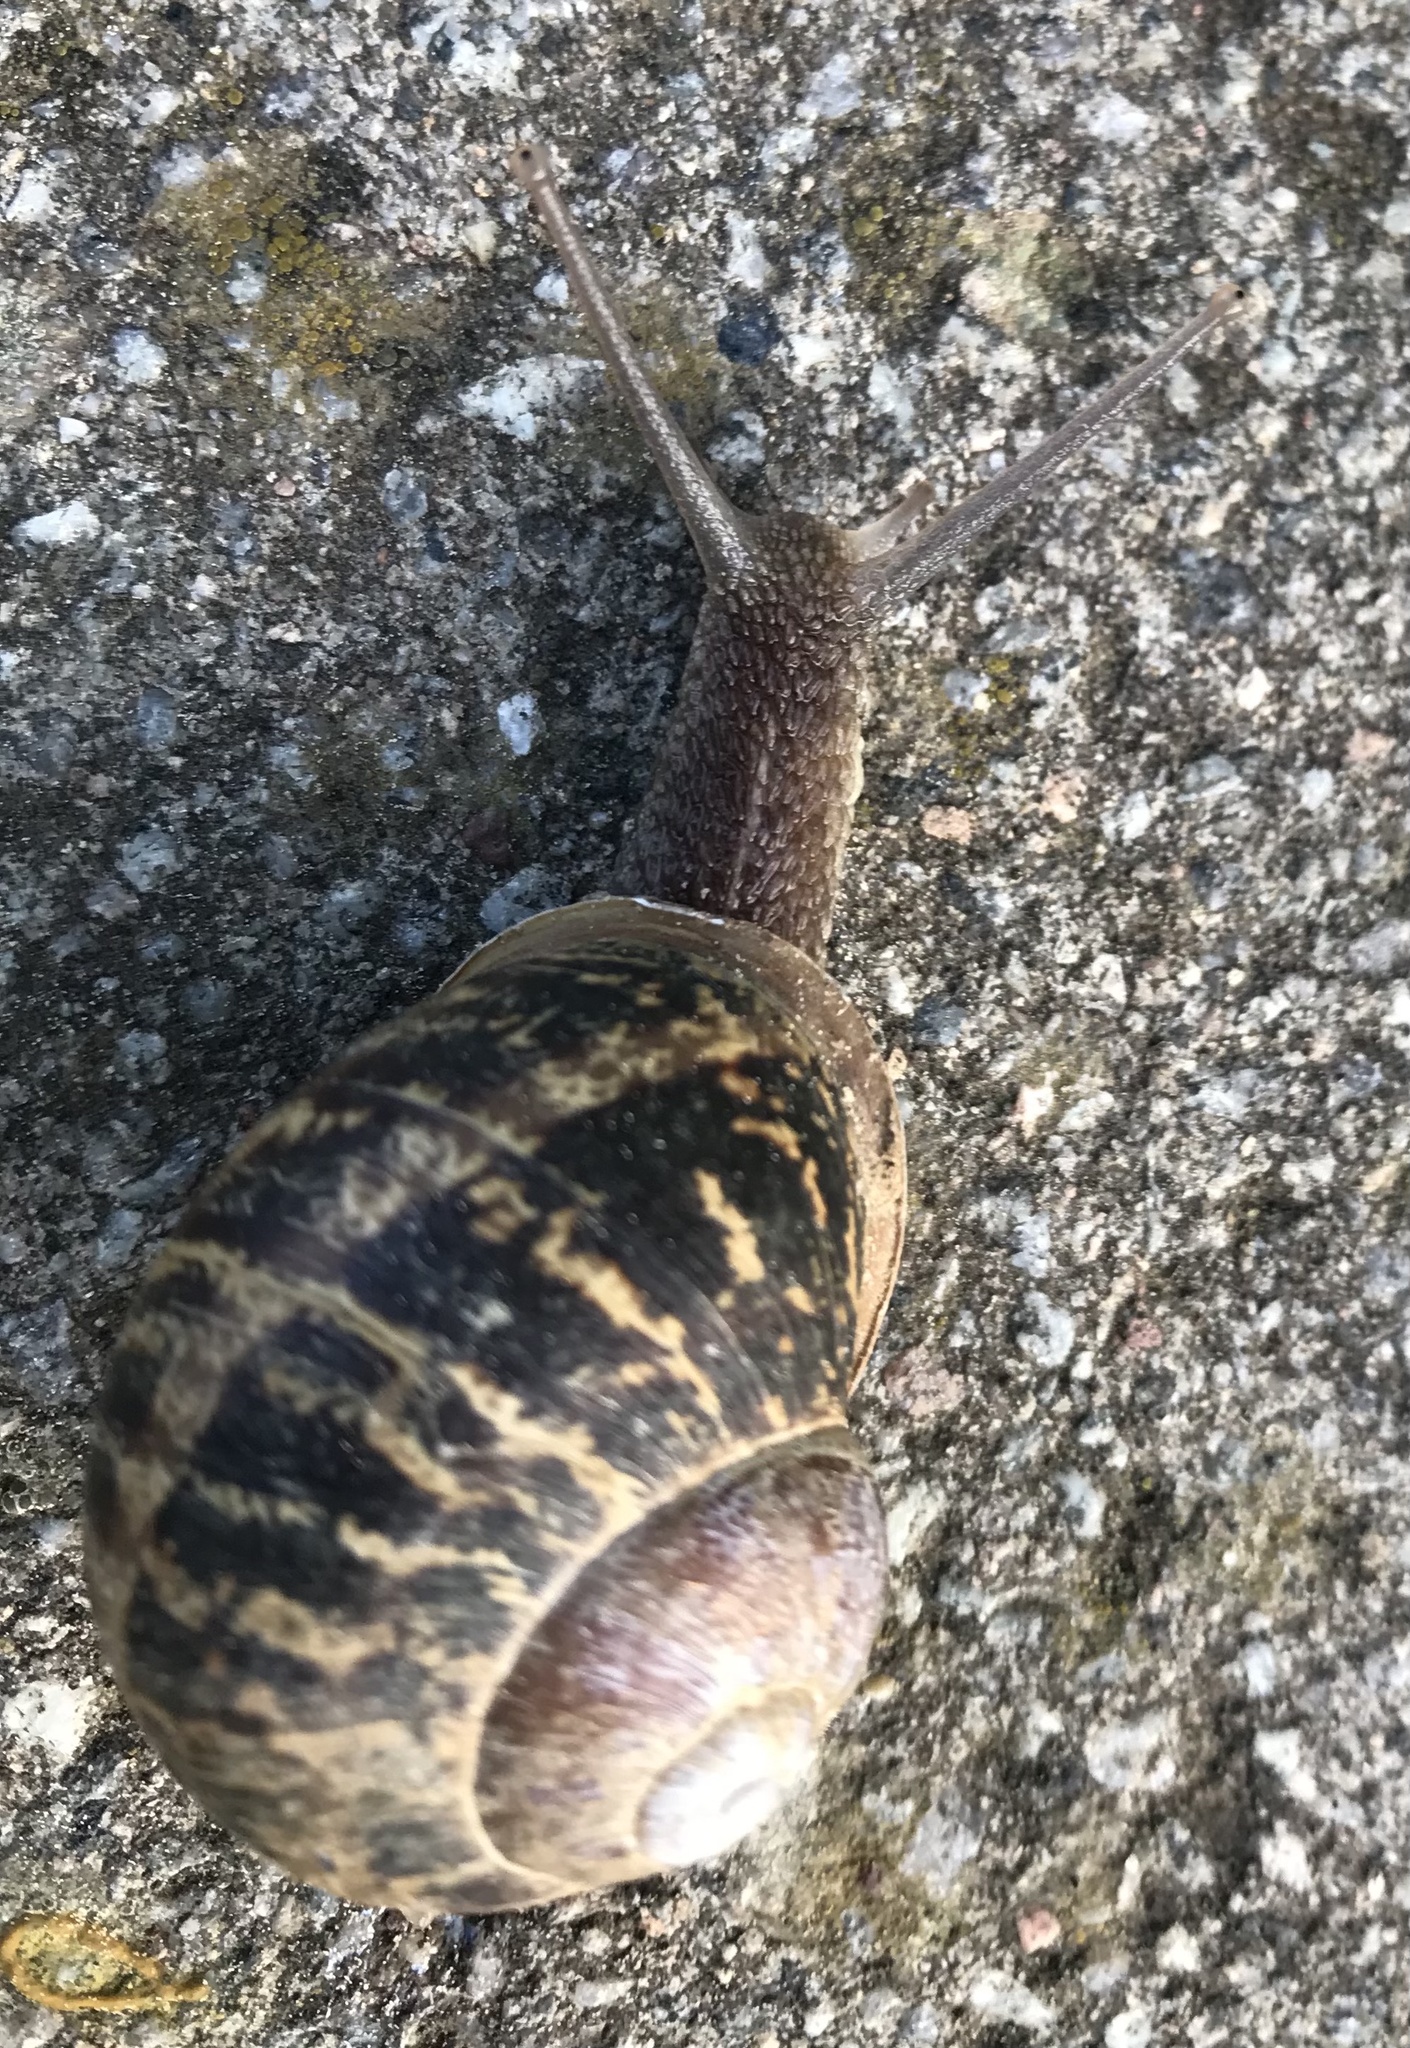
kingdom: Animalia
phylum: Mollusca
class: Gastropoda
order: Stylommatophora
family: Helicidae
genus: Cornu
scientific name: Cornu aspersum
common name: Brown garden snail
